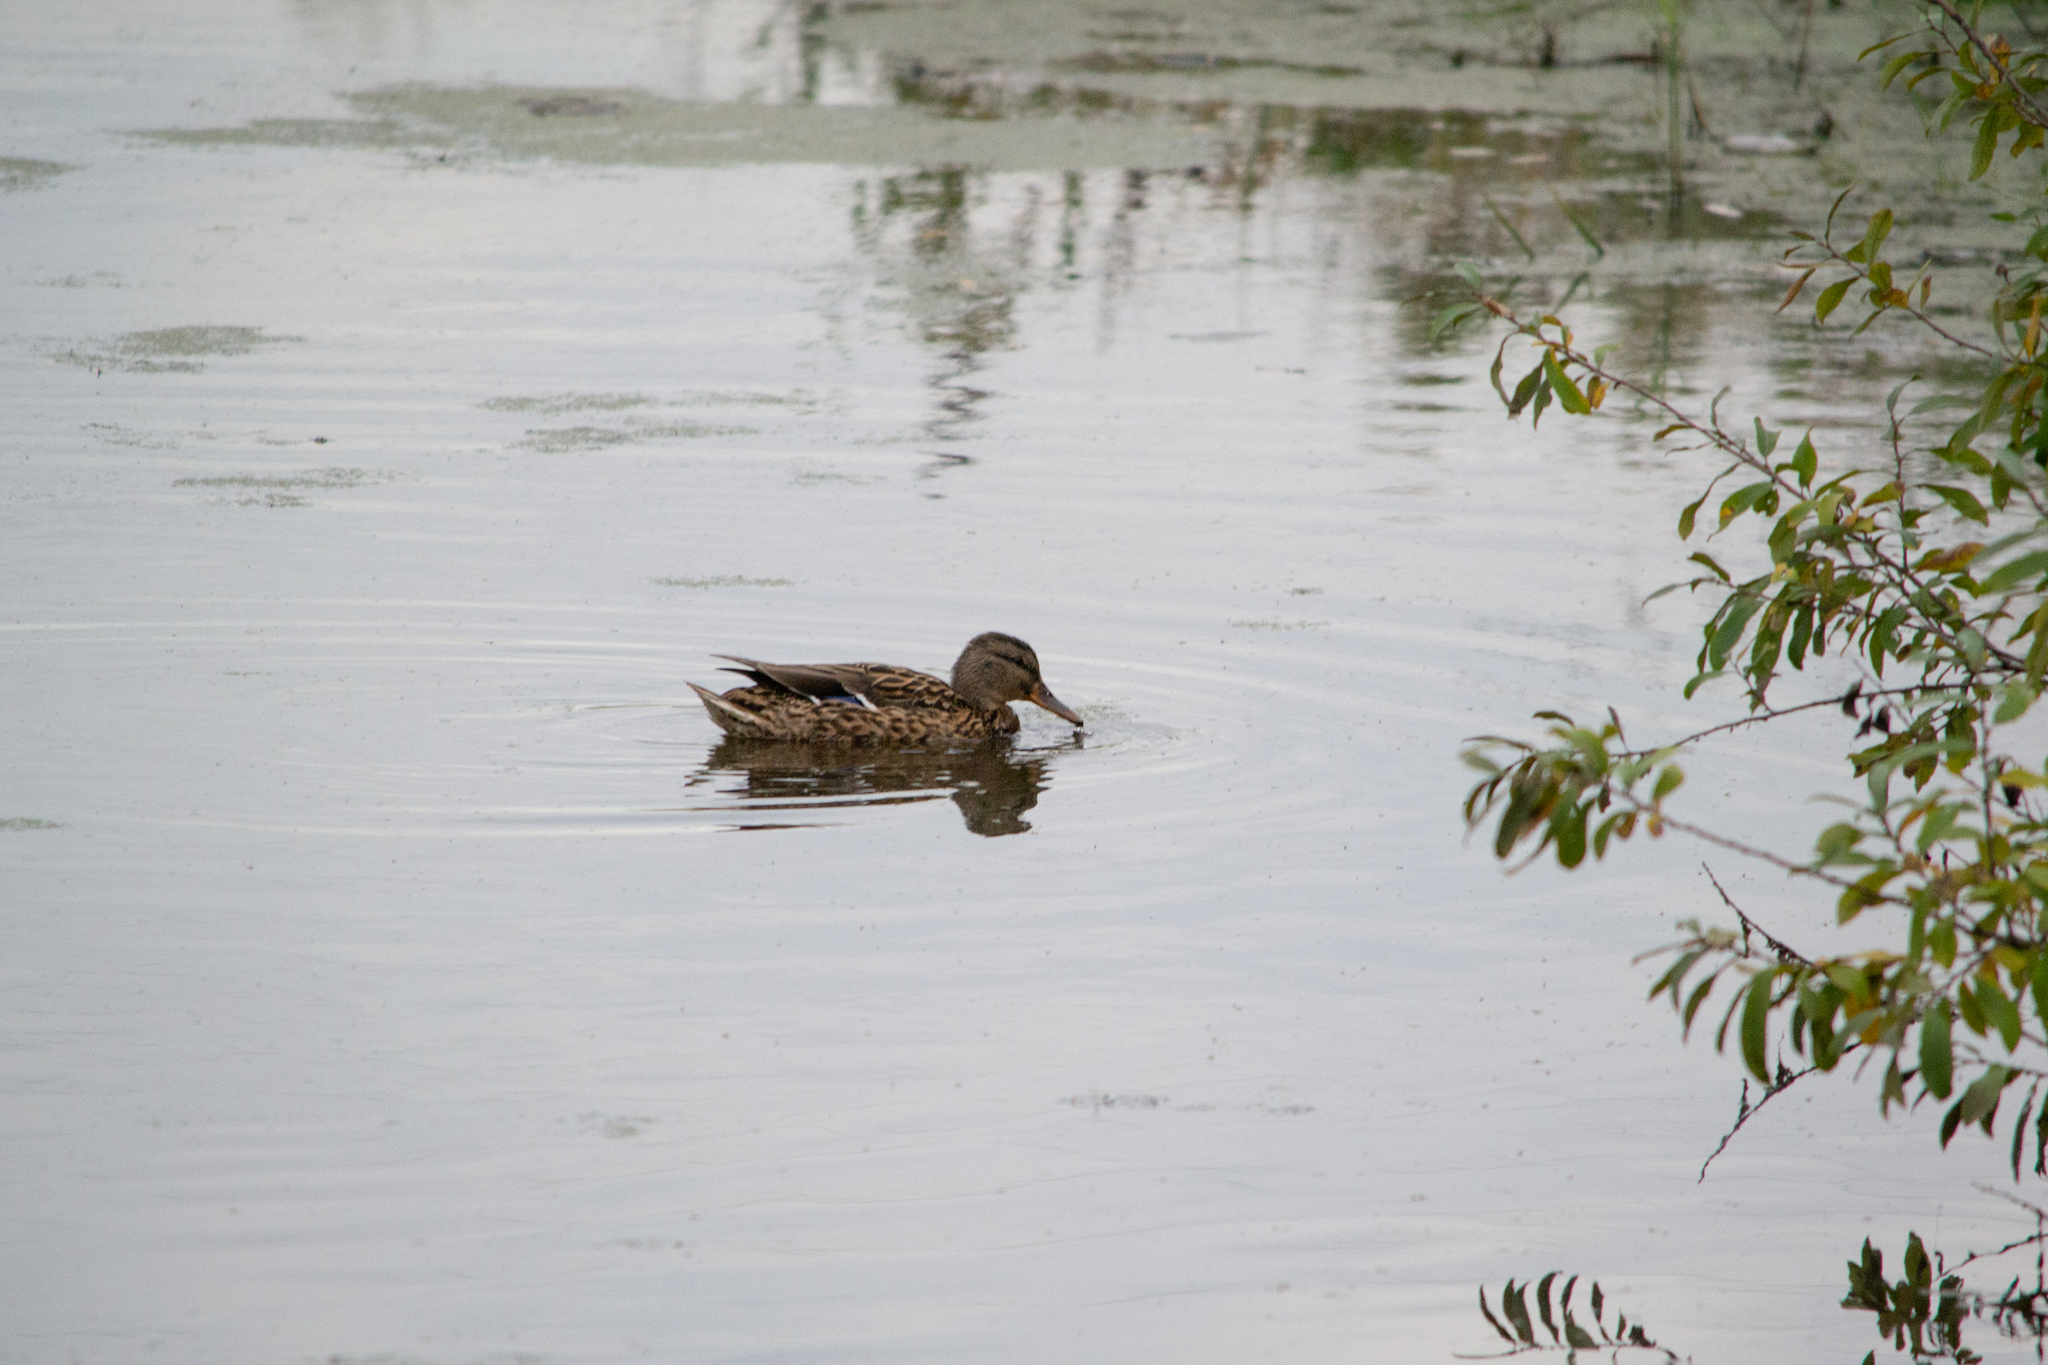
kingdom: Animalia
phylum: Chordata
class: Aves
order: Anseriformes
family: Anatidae
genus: Anas
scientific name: Anas platyrhynchos
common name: Mallard
